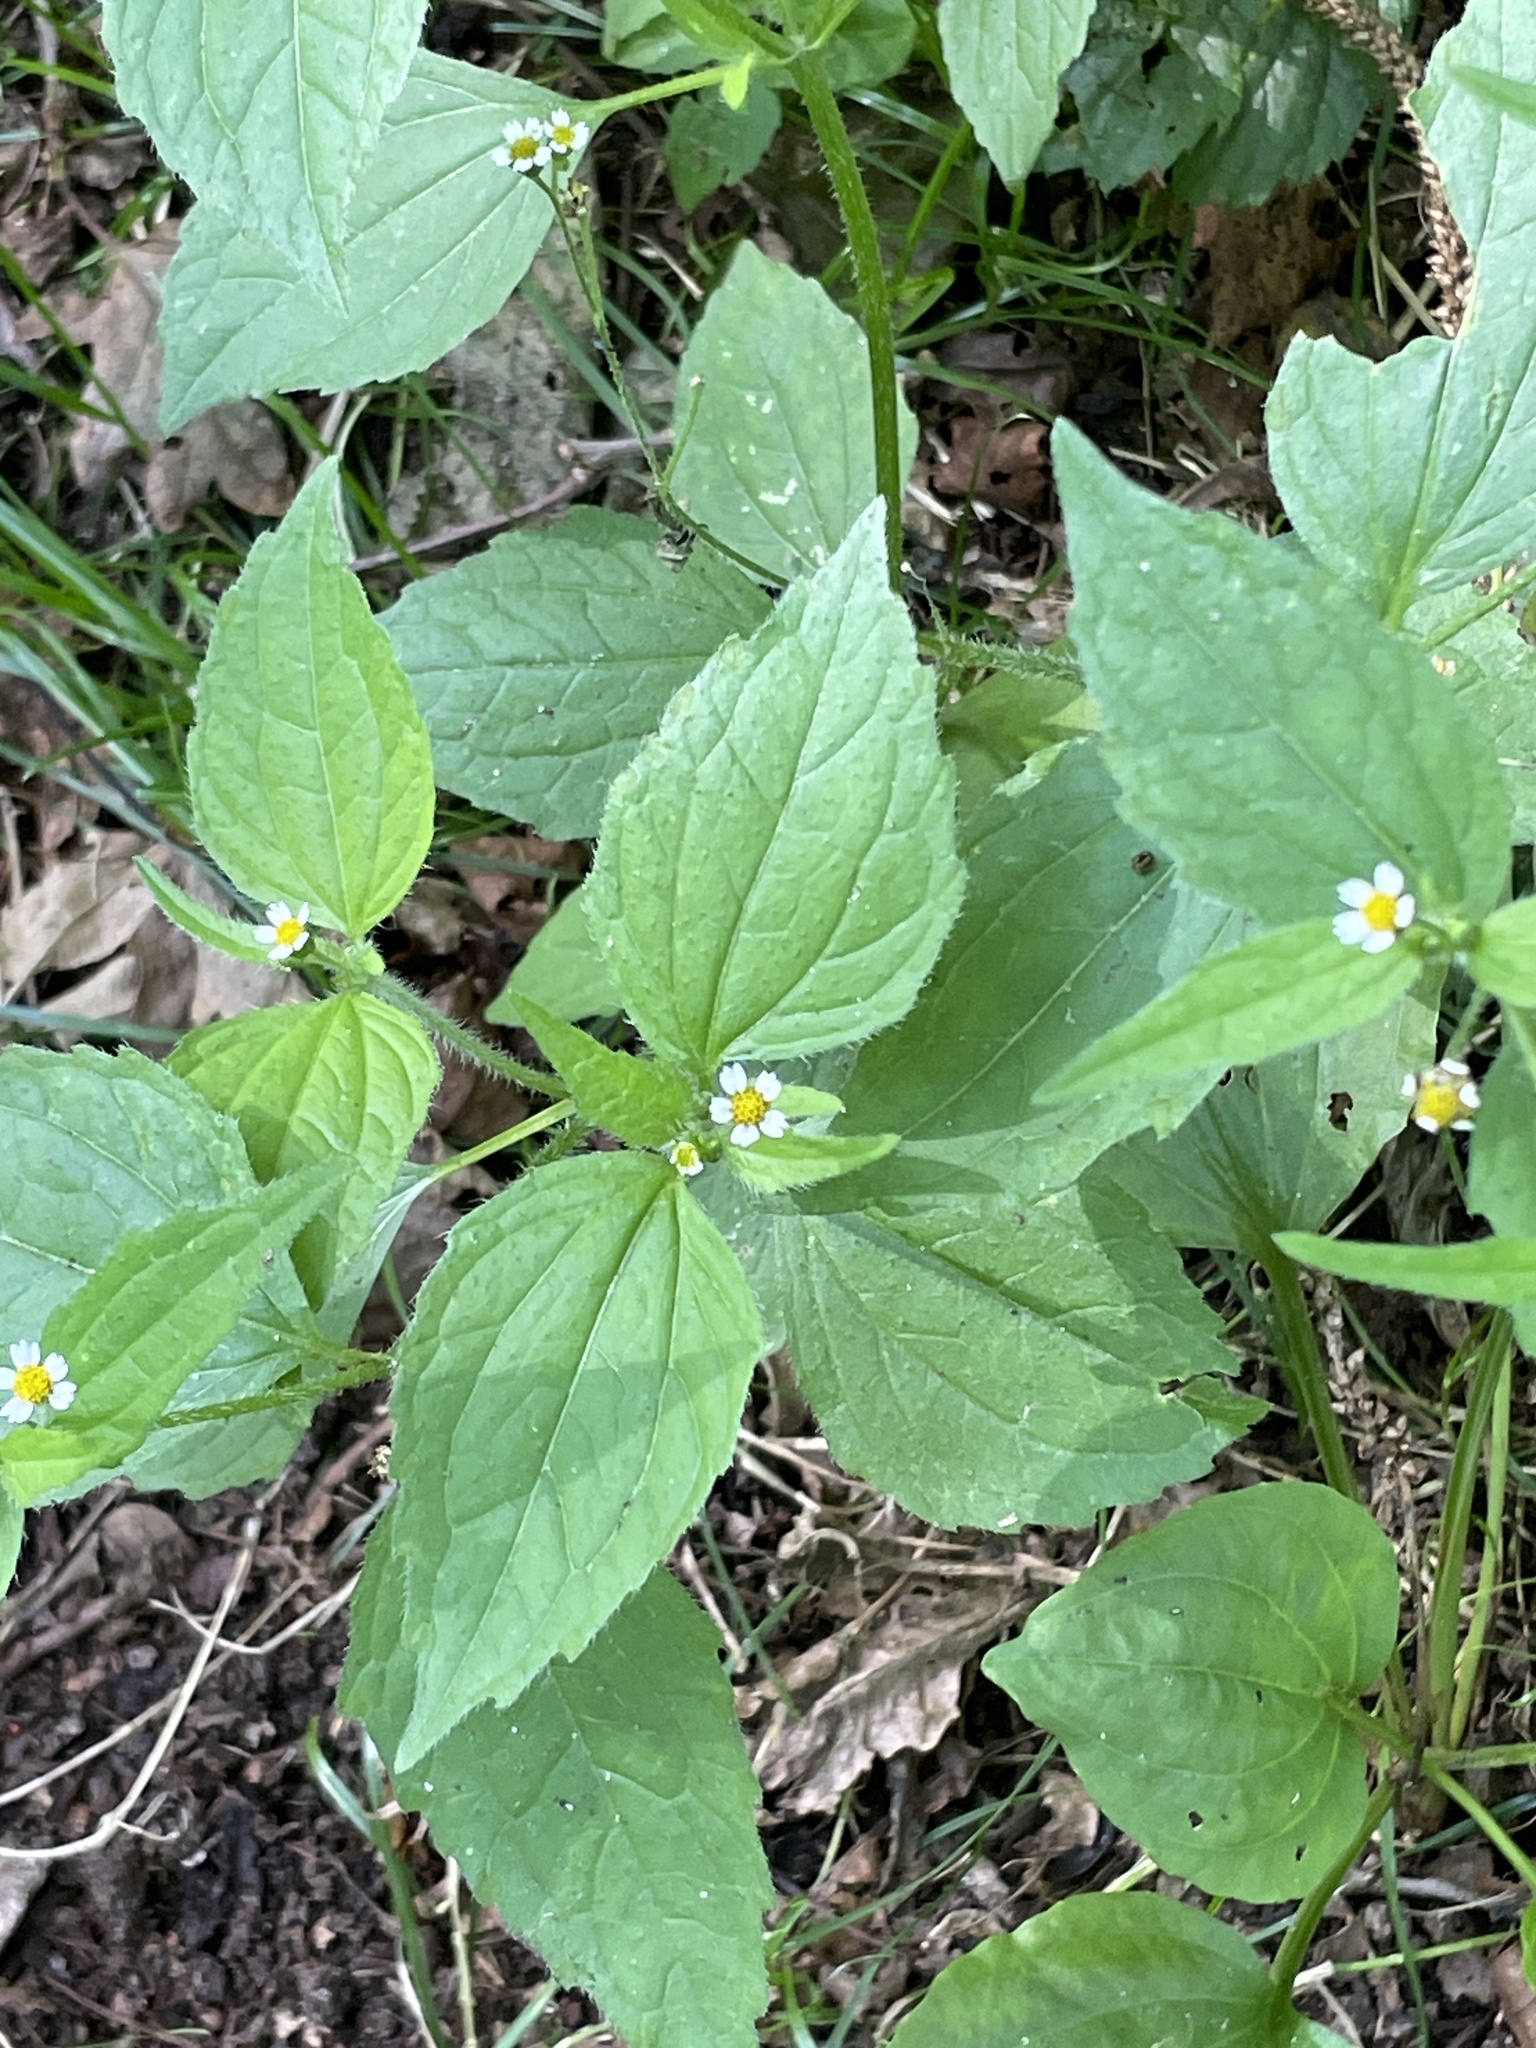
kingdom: Plantae
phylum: Tracheophyta
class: Magnoliopsida
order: Asterales
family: Asteraceae
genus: Galinsoga
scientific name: Galinsoga quadriradiata
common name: Shaggy soldier
